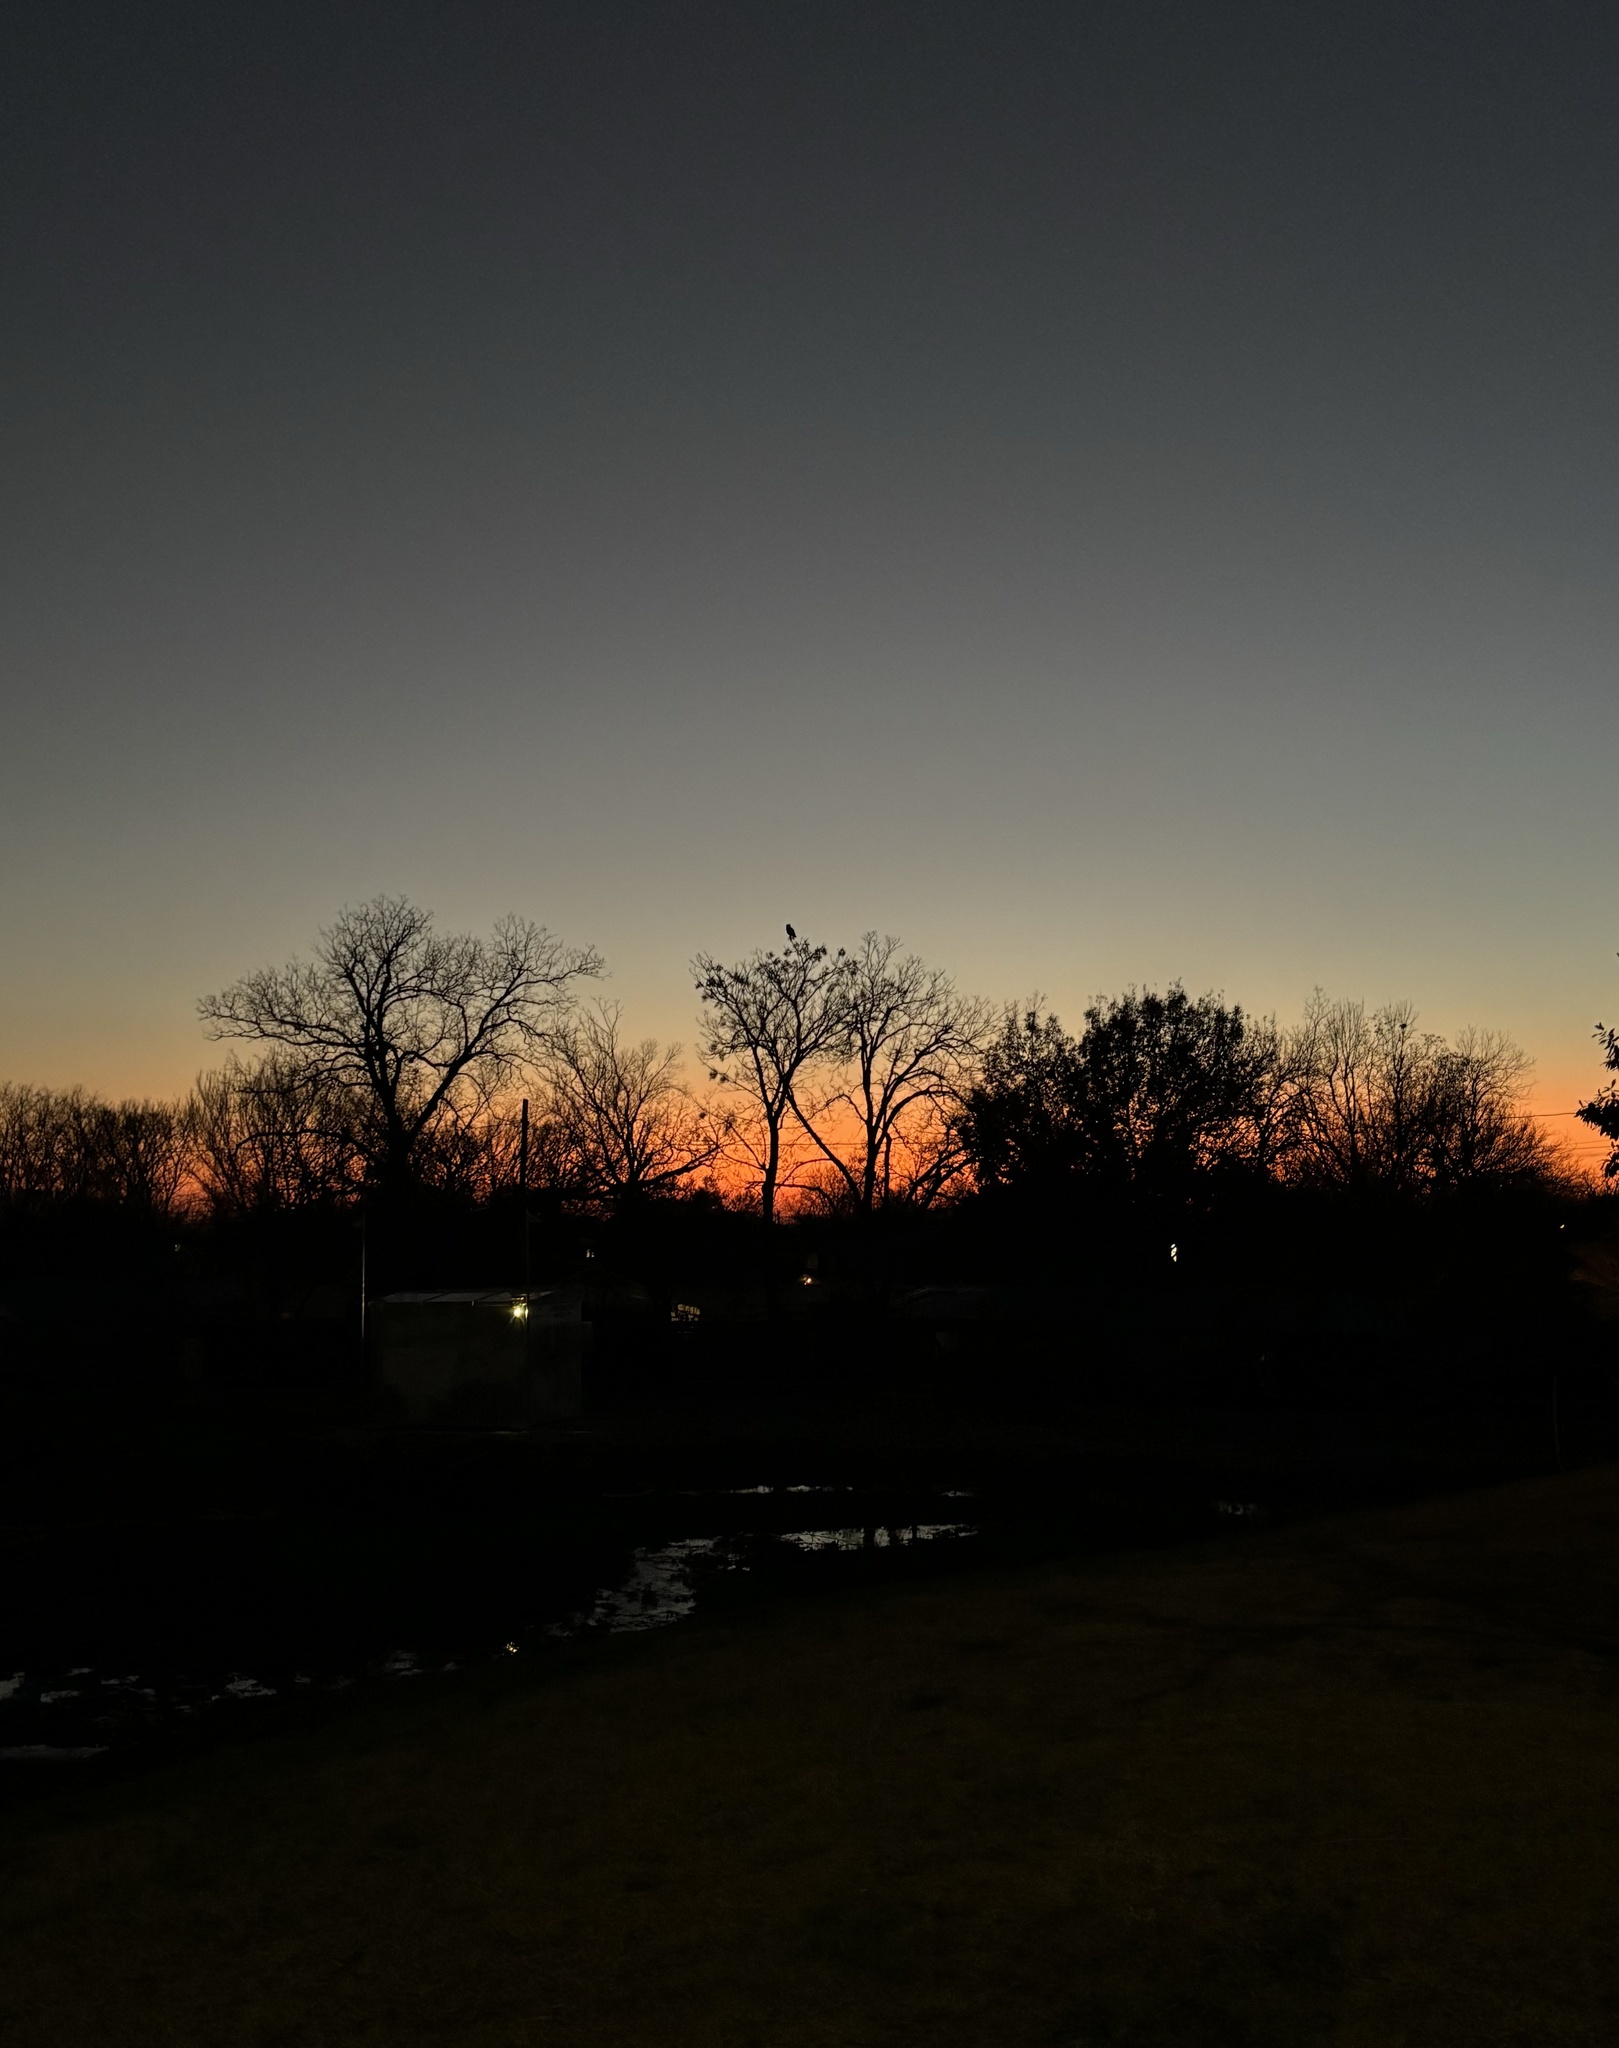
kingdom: Animalia
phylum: Chordata
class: Aves
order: Strigiformes
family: Strigidae
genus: Bubo
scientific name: Bubo virginianus
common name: Great horned owl
